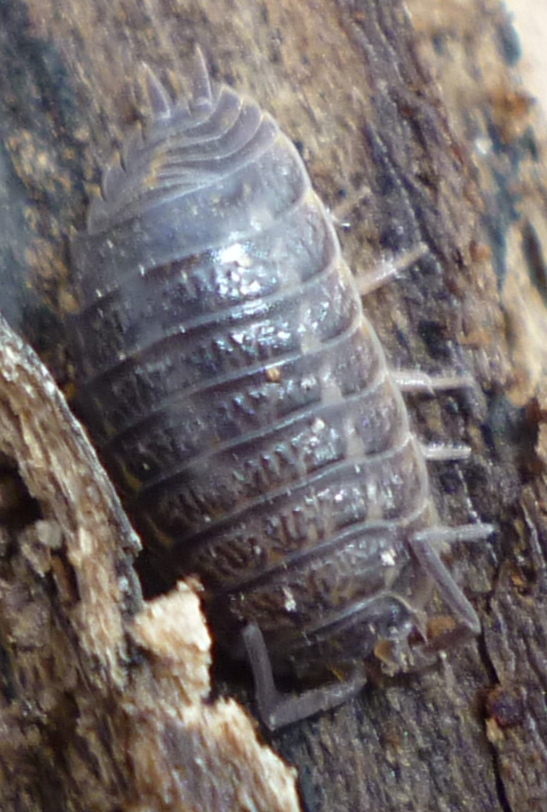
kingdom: Animalia
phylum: Arthropoda
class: Malacostraca
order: Isopoda
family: Trachelipodidae
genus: Trachelipus
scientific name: Trachelipus rathkii
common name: Isopod
